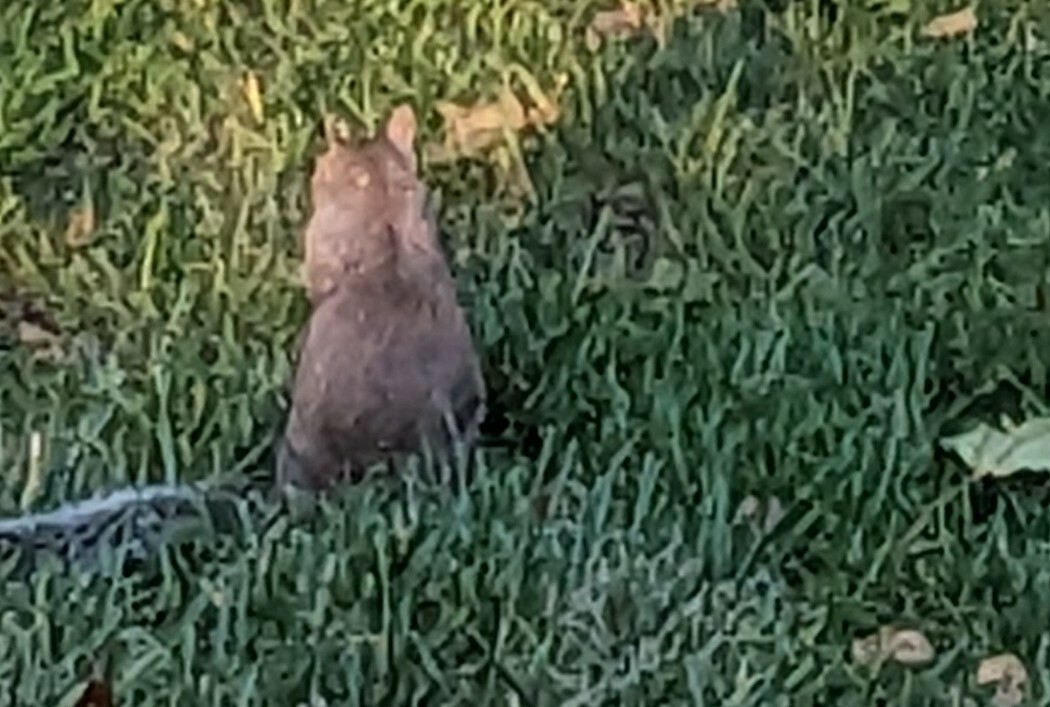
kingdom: Animalia
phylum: Chordata
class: Mammalia
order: Rodentia
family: Sciuridae
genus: Sciurus
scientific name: Sciurus carolinensis
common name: Eastern gray squirrel
